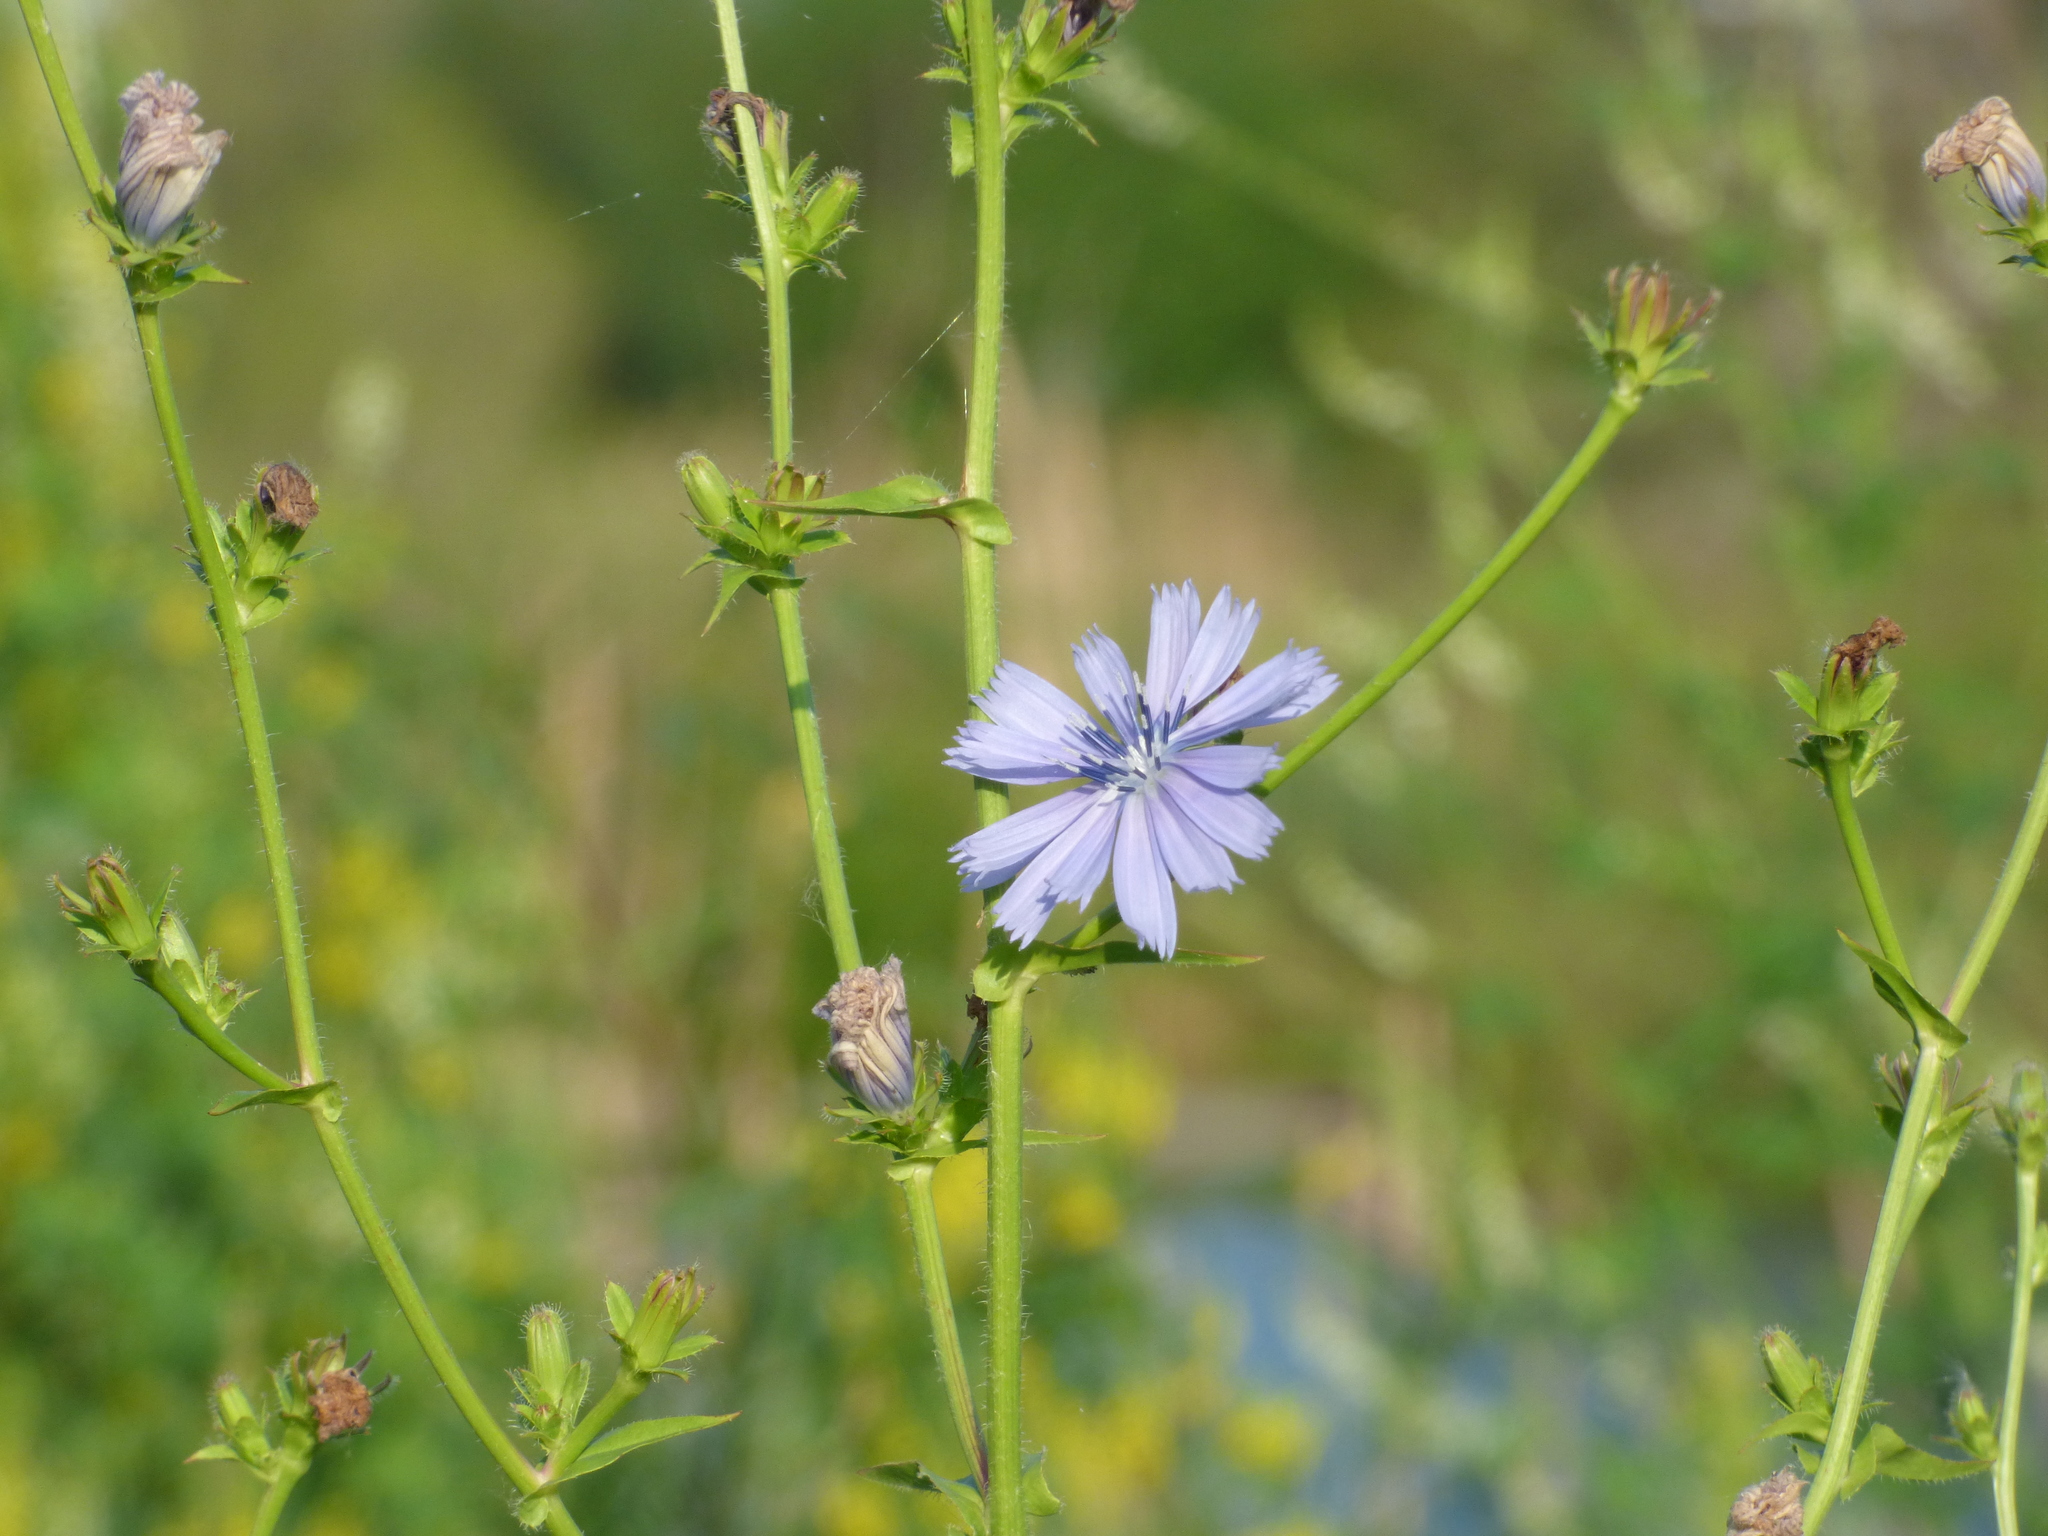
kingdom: Plantae
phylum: Tracheophyta
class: Magnoliopsida
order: Asterales
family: Asteraceae
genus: Cichorium
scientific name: Cichorium intybus
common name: Chicory
